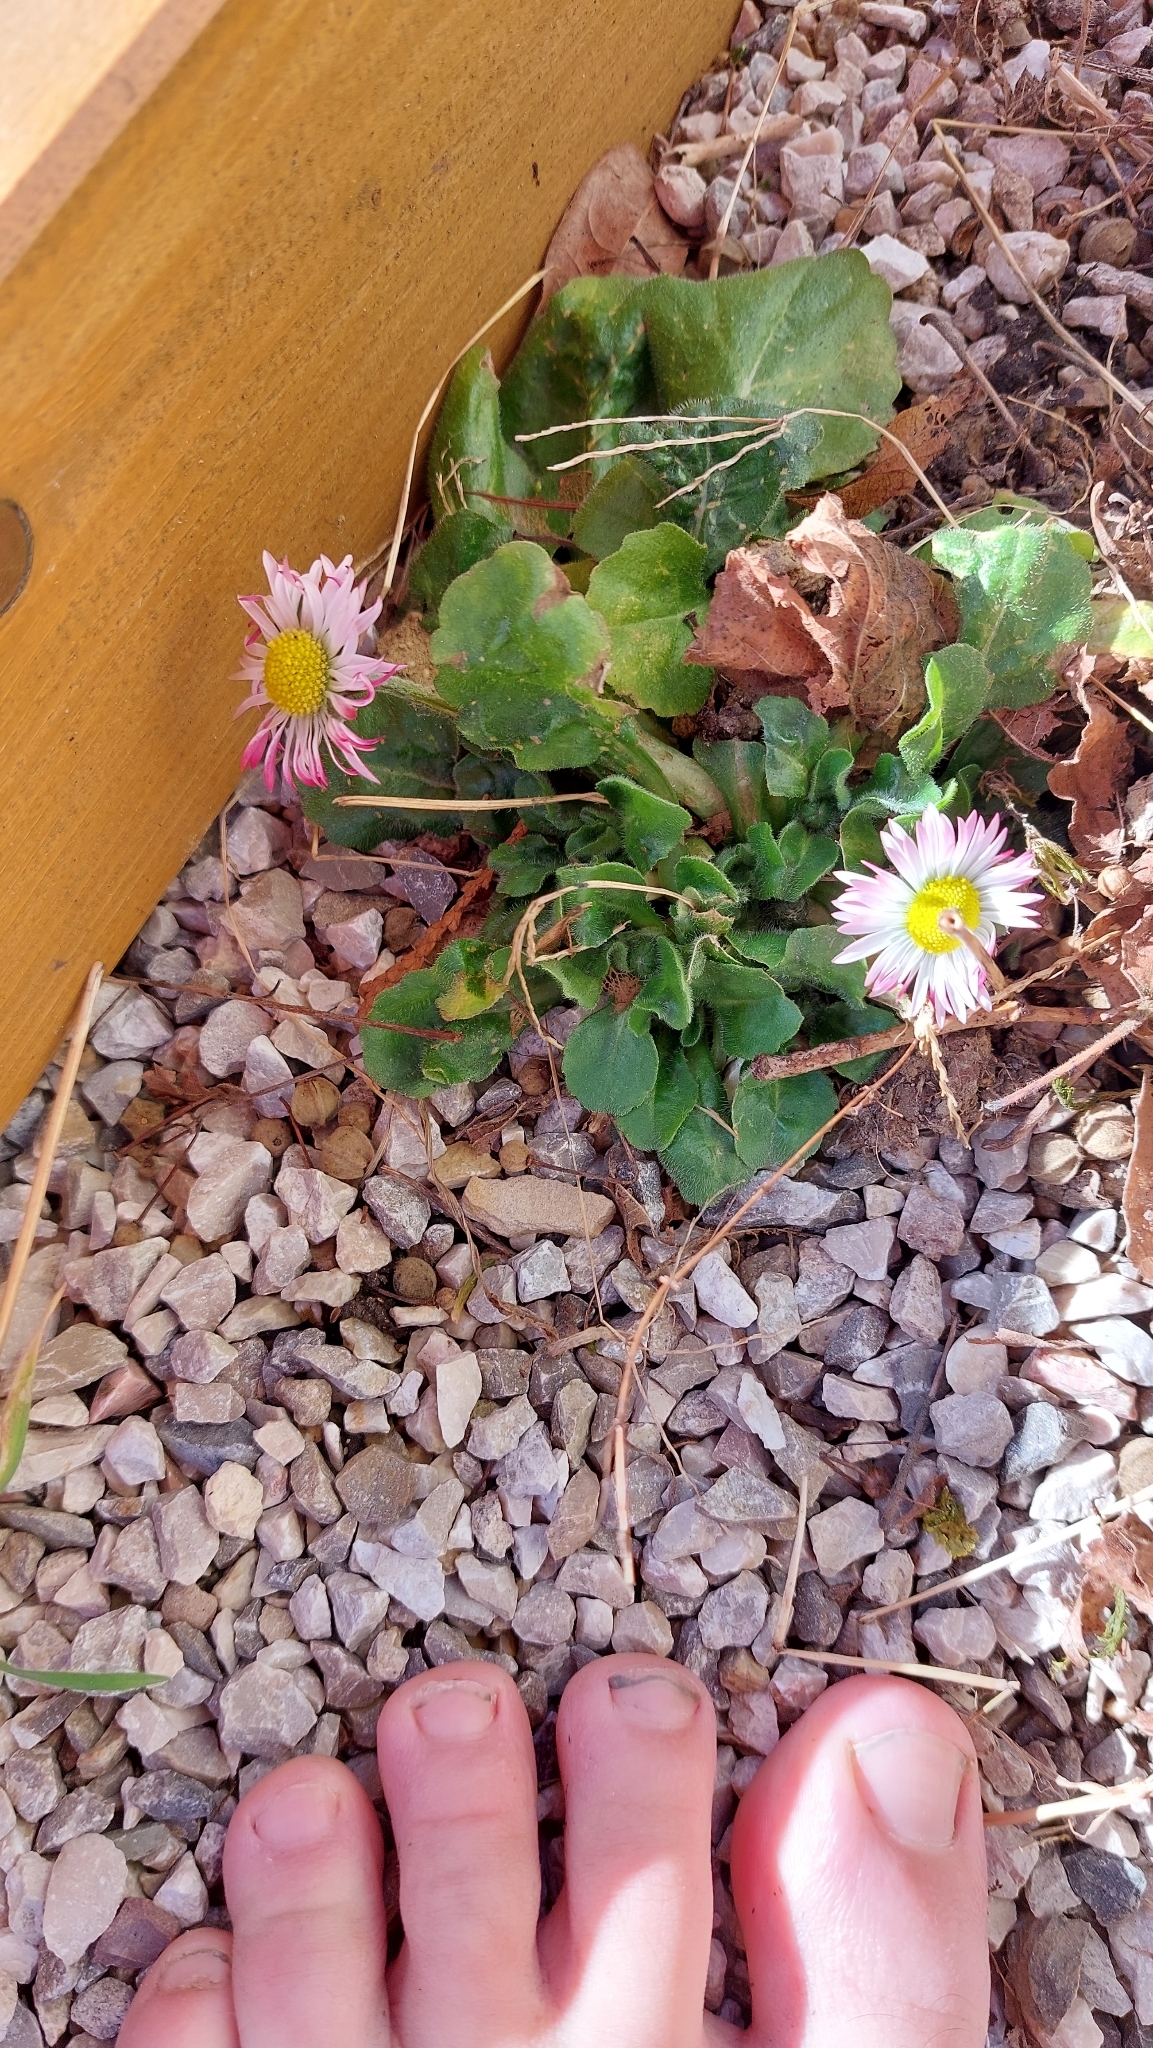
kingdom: Plantae
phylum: Tracheophyta
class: Magnoliopsida
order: Asterales
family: Asteraceae
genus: Bellis
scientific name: Bellis perennis
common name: Lawndaisy
